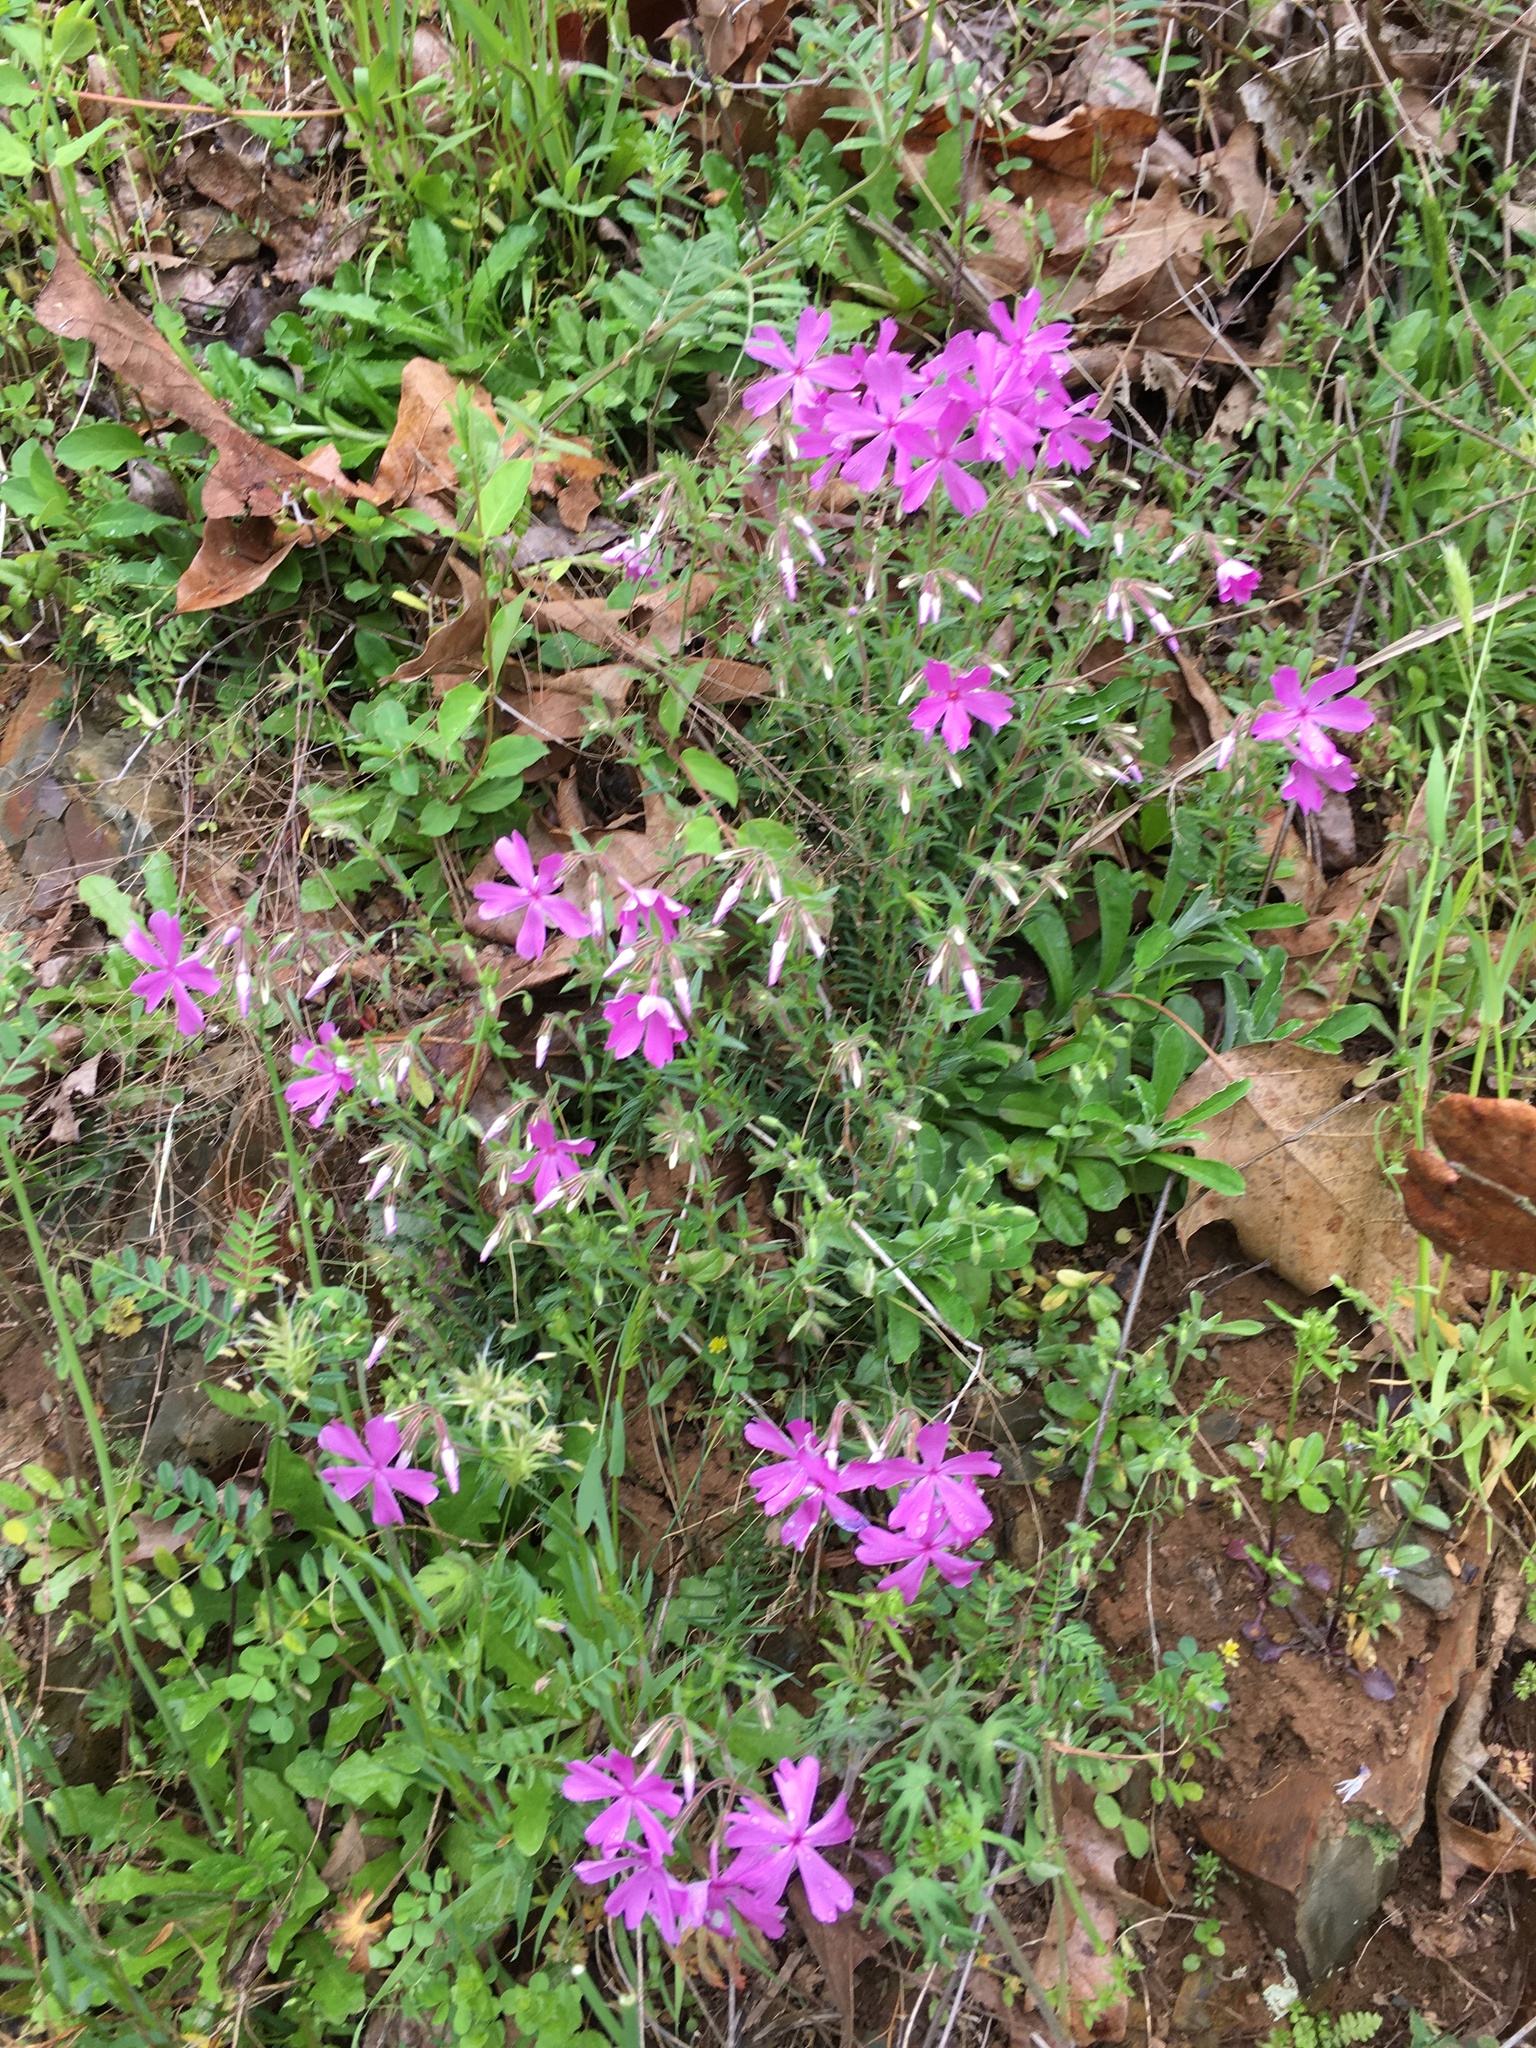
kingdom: Plantae
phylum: Tracheophyta
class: Magnoliopsida
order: Ericales
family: Polemoniaceae
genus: Phlox
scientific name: Phlox nivalis
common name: Trailing phlox
